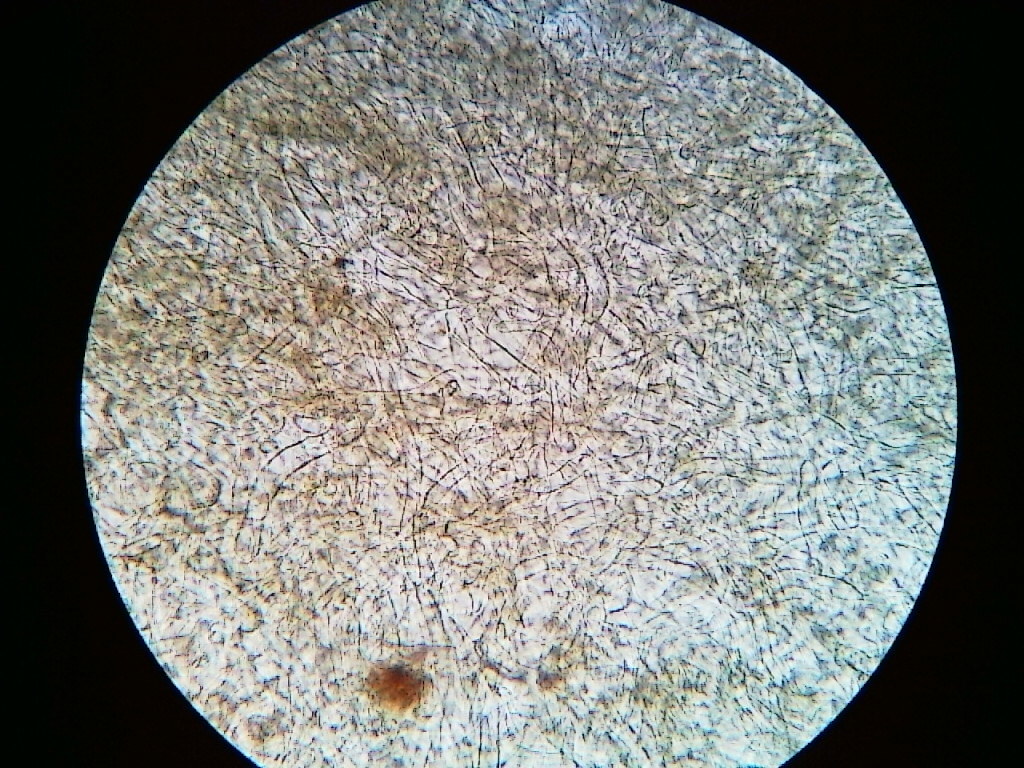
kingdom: Fungi
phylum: Ascomycota
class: Pezizomycetes
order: Pezizales
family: Sarcosomataceae
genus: Pseudoplectania
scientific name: Pseudoplectania melaena
